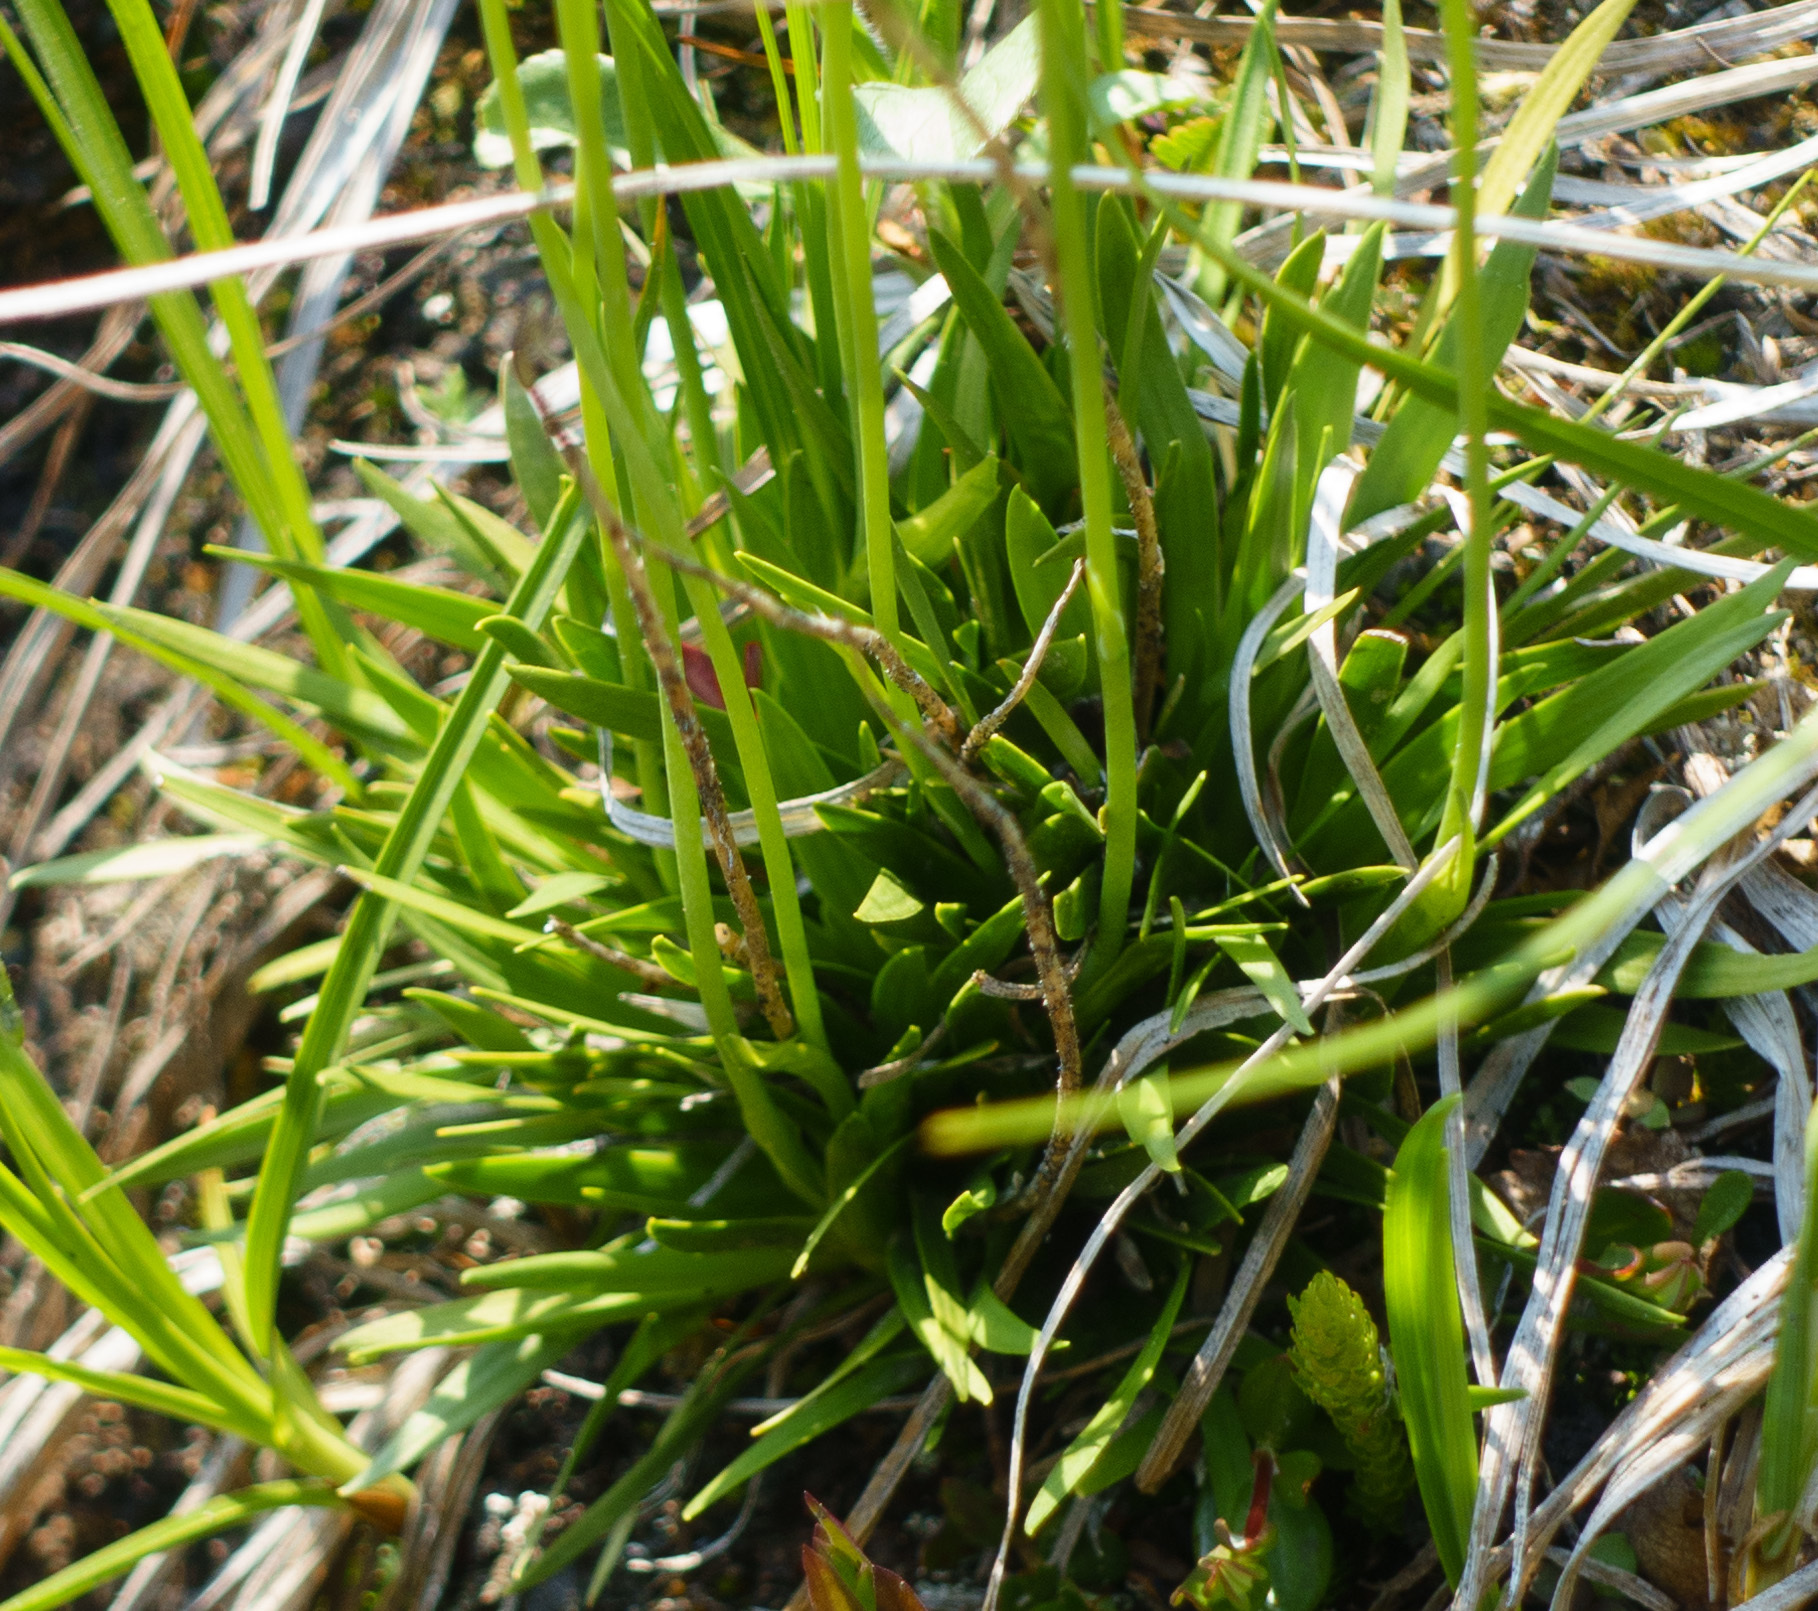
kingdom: Plantae
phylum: Tracheophyta
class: Liliopsida
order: Alismatales
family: Tofieldiaceae
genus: Tofieldia
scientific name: Tofieldia pusilla
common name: Scottish false asphodel
